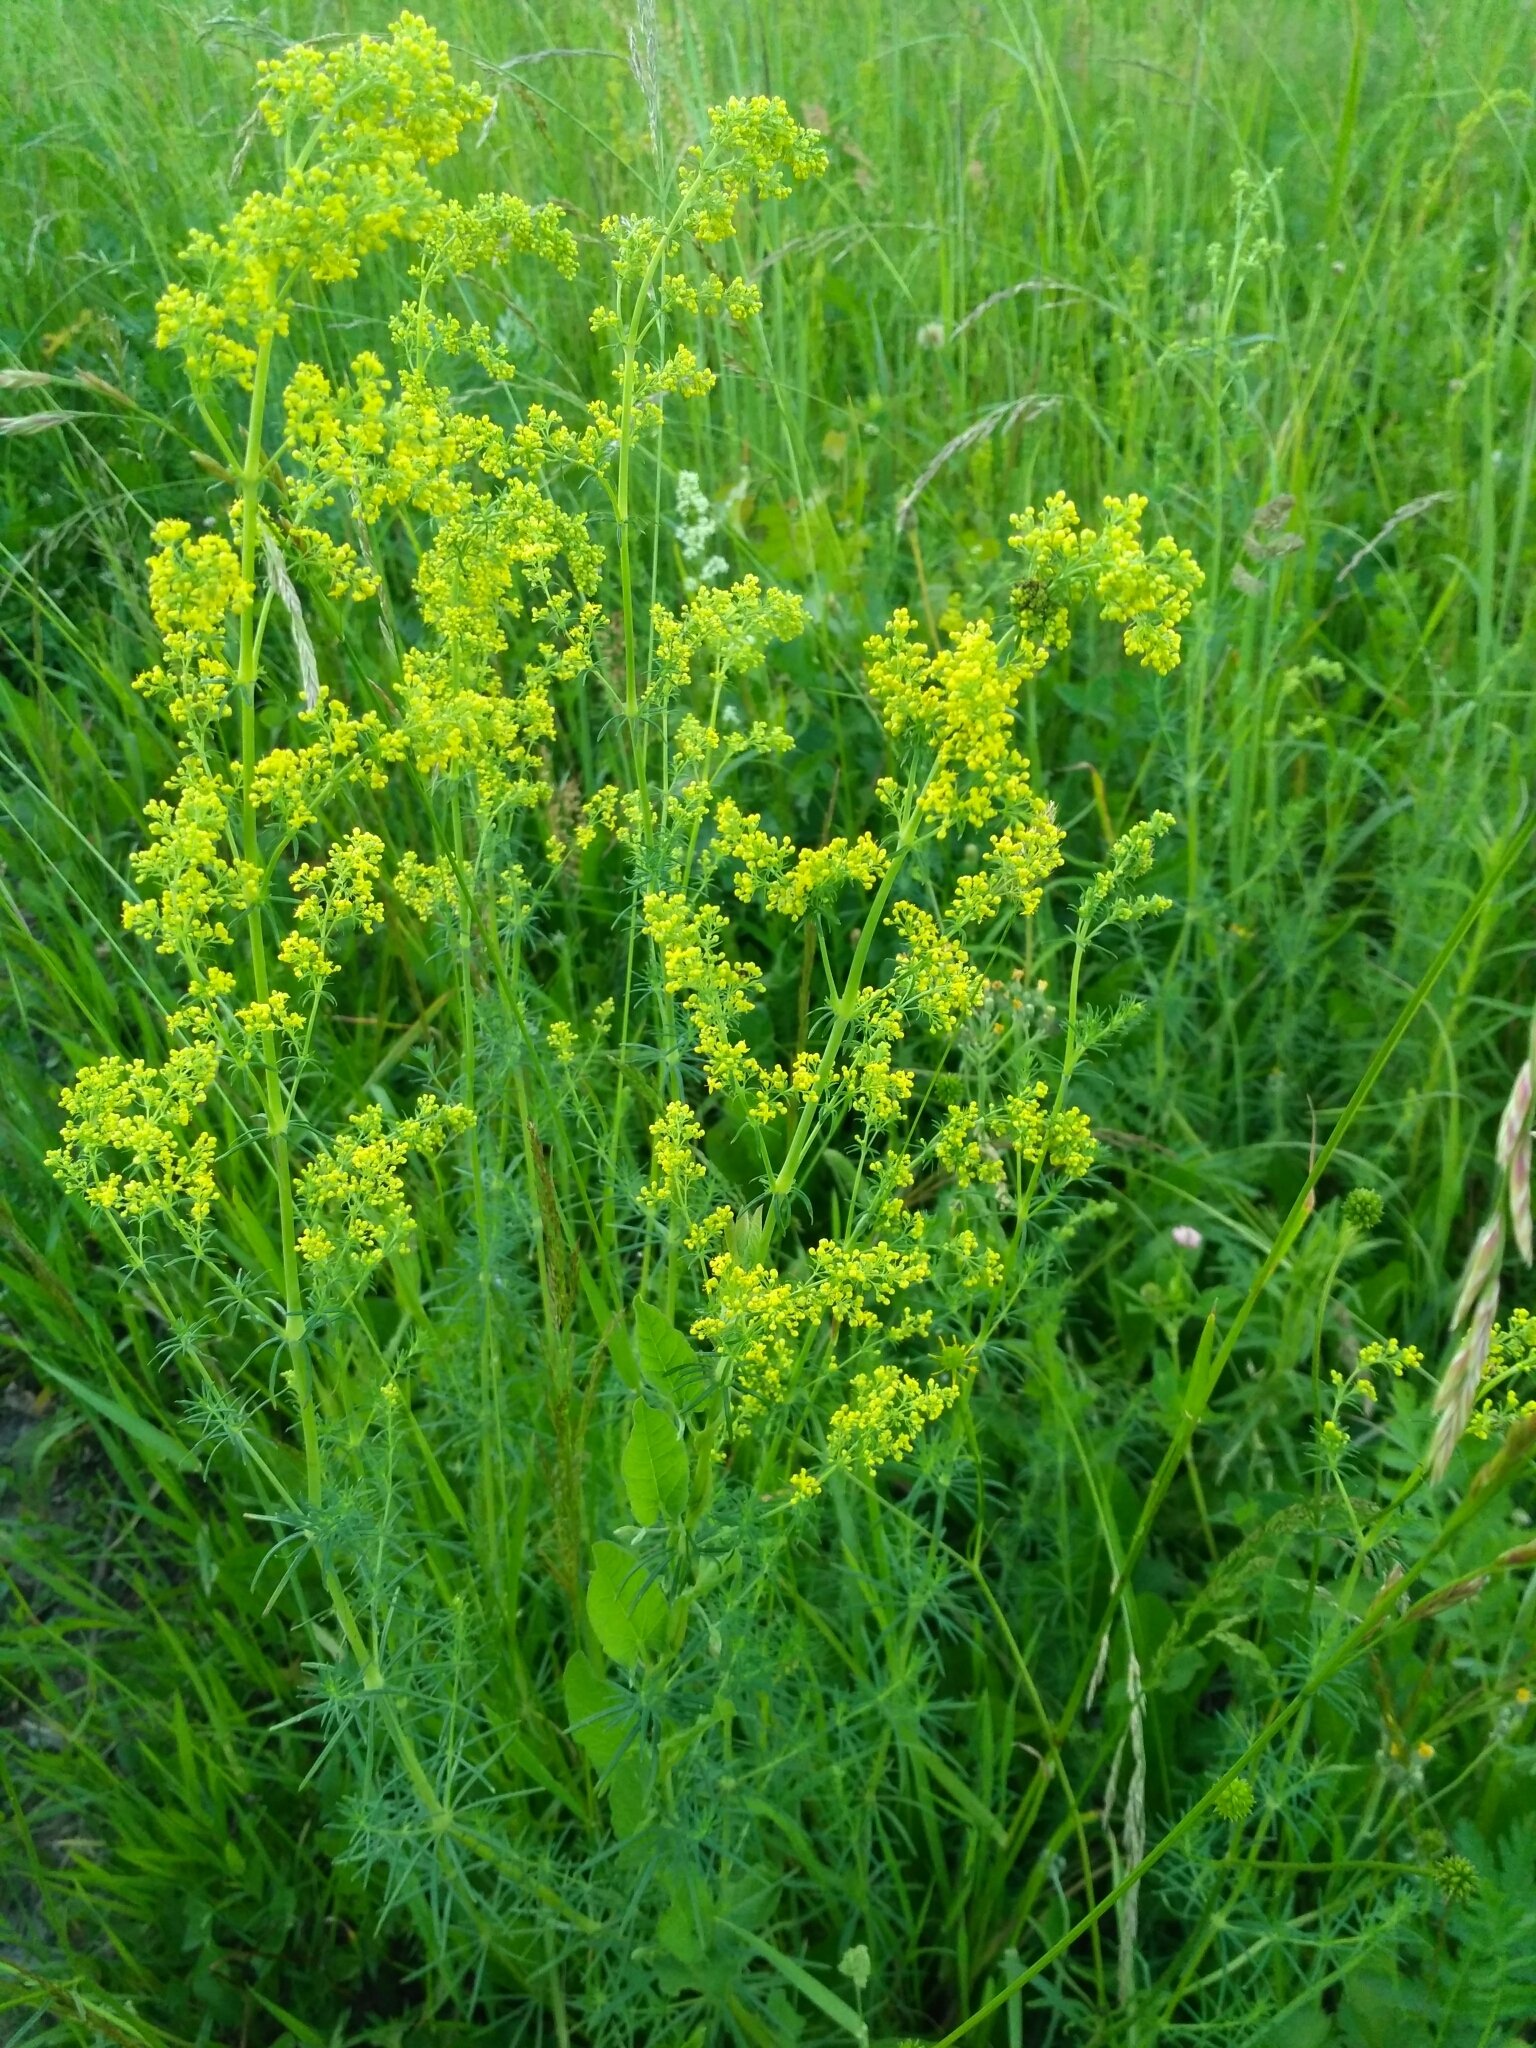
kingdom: Plantae
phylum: Tracheophyta
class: Magnoliopsida
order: Gentianales
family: Rubiaceae
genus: Galium
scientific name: Galium verum
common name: Lady's bedstraw
